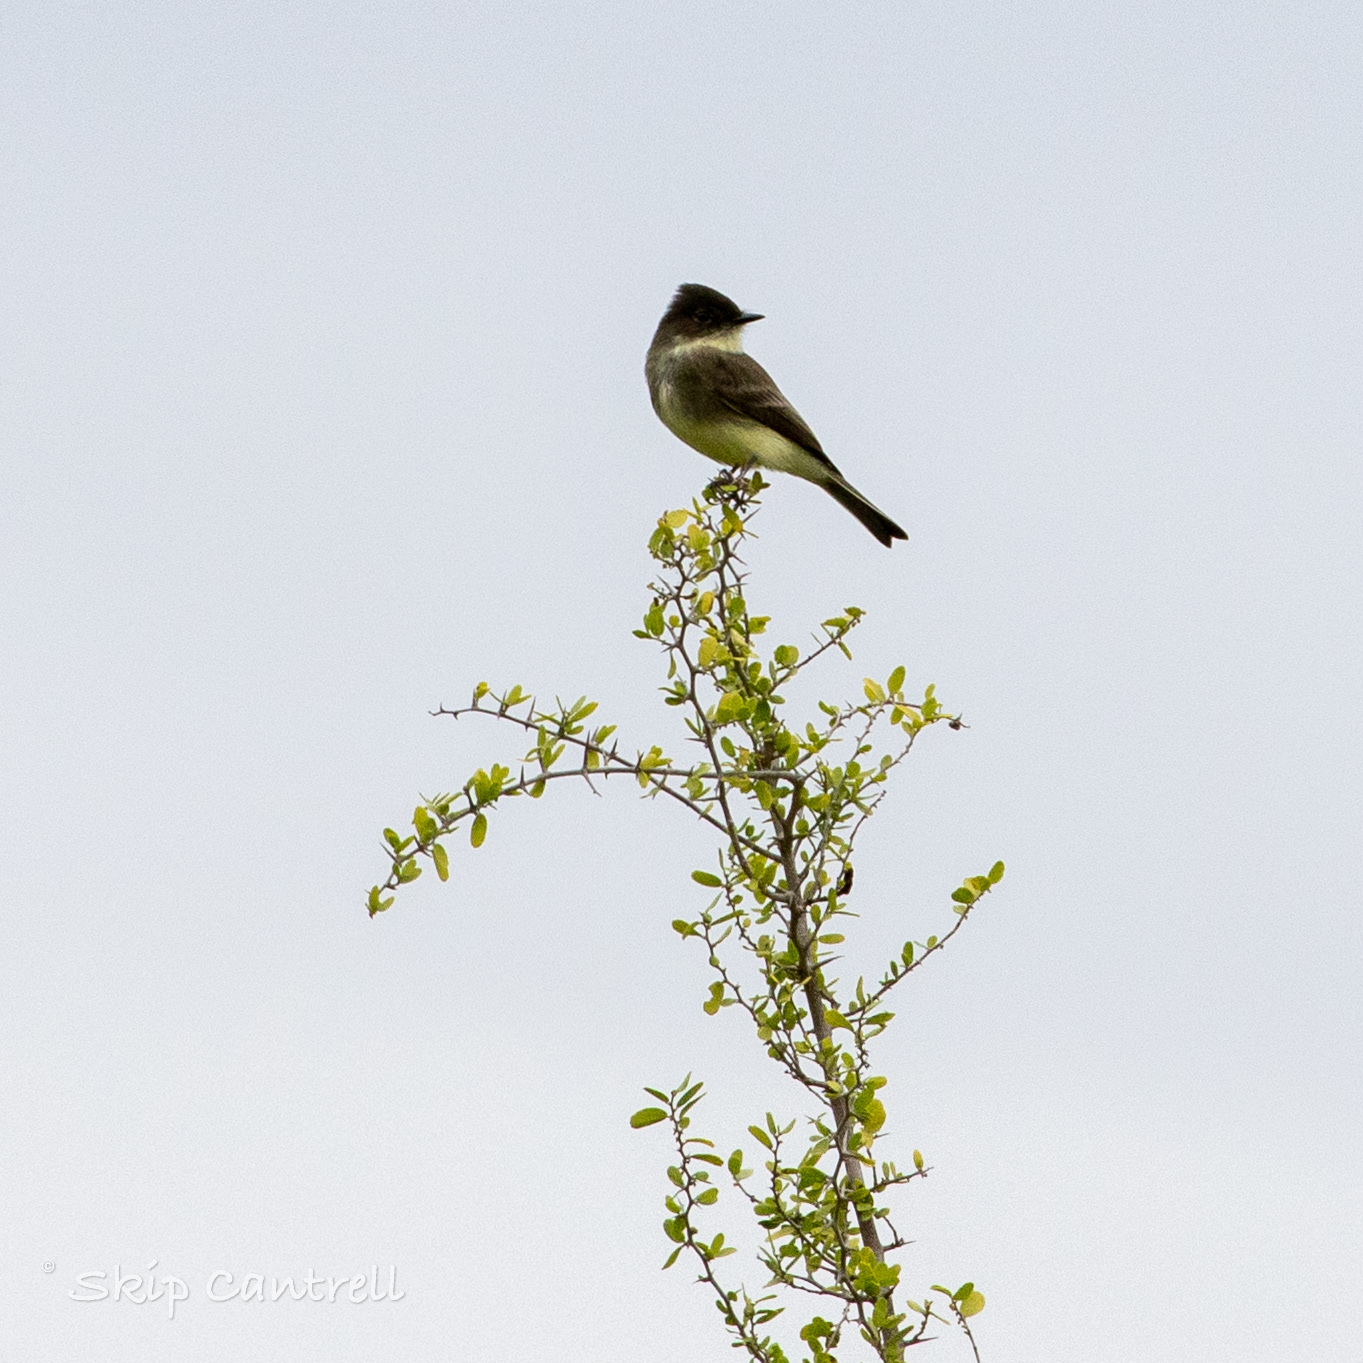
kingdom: Animalia
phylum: Chordata
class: Aves
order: Passeriformes
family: Tyrannidae
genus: Sayornis
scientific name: Sayornis phoebe
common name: Eastern phoebe
